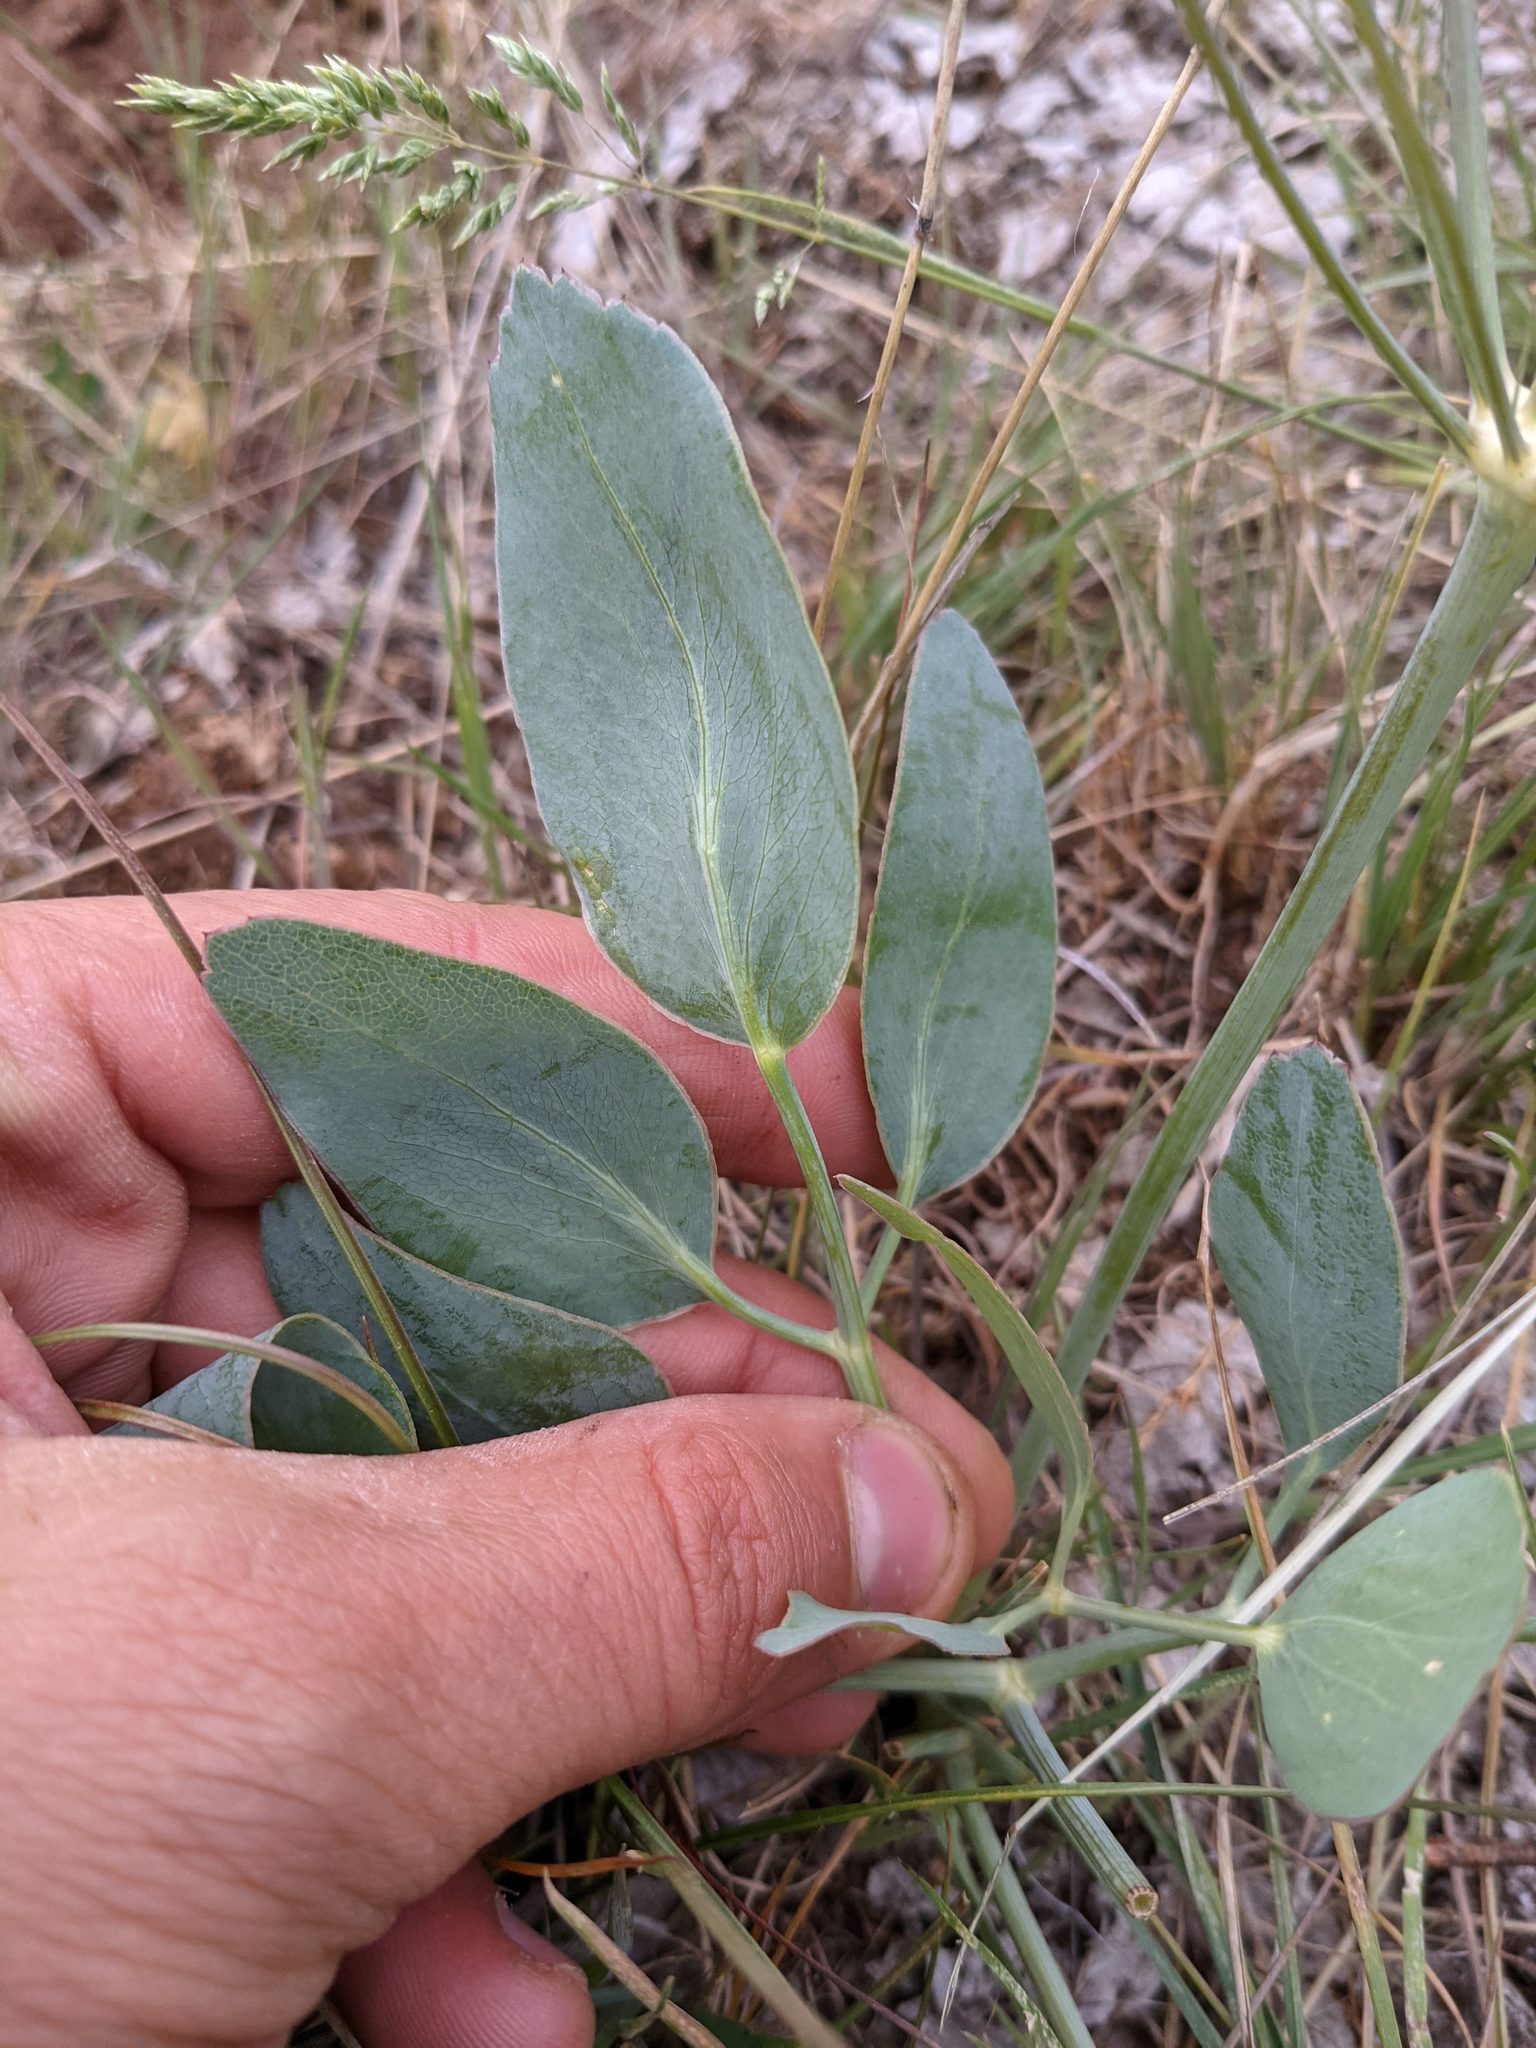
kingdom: Plantae
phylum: Tracheophyta
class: Magnoliopsida
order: Apiales
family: Apiaceae
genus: Lomatium
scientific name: Lomatium nudicaule
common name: Pestle lomatium
